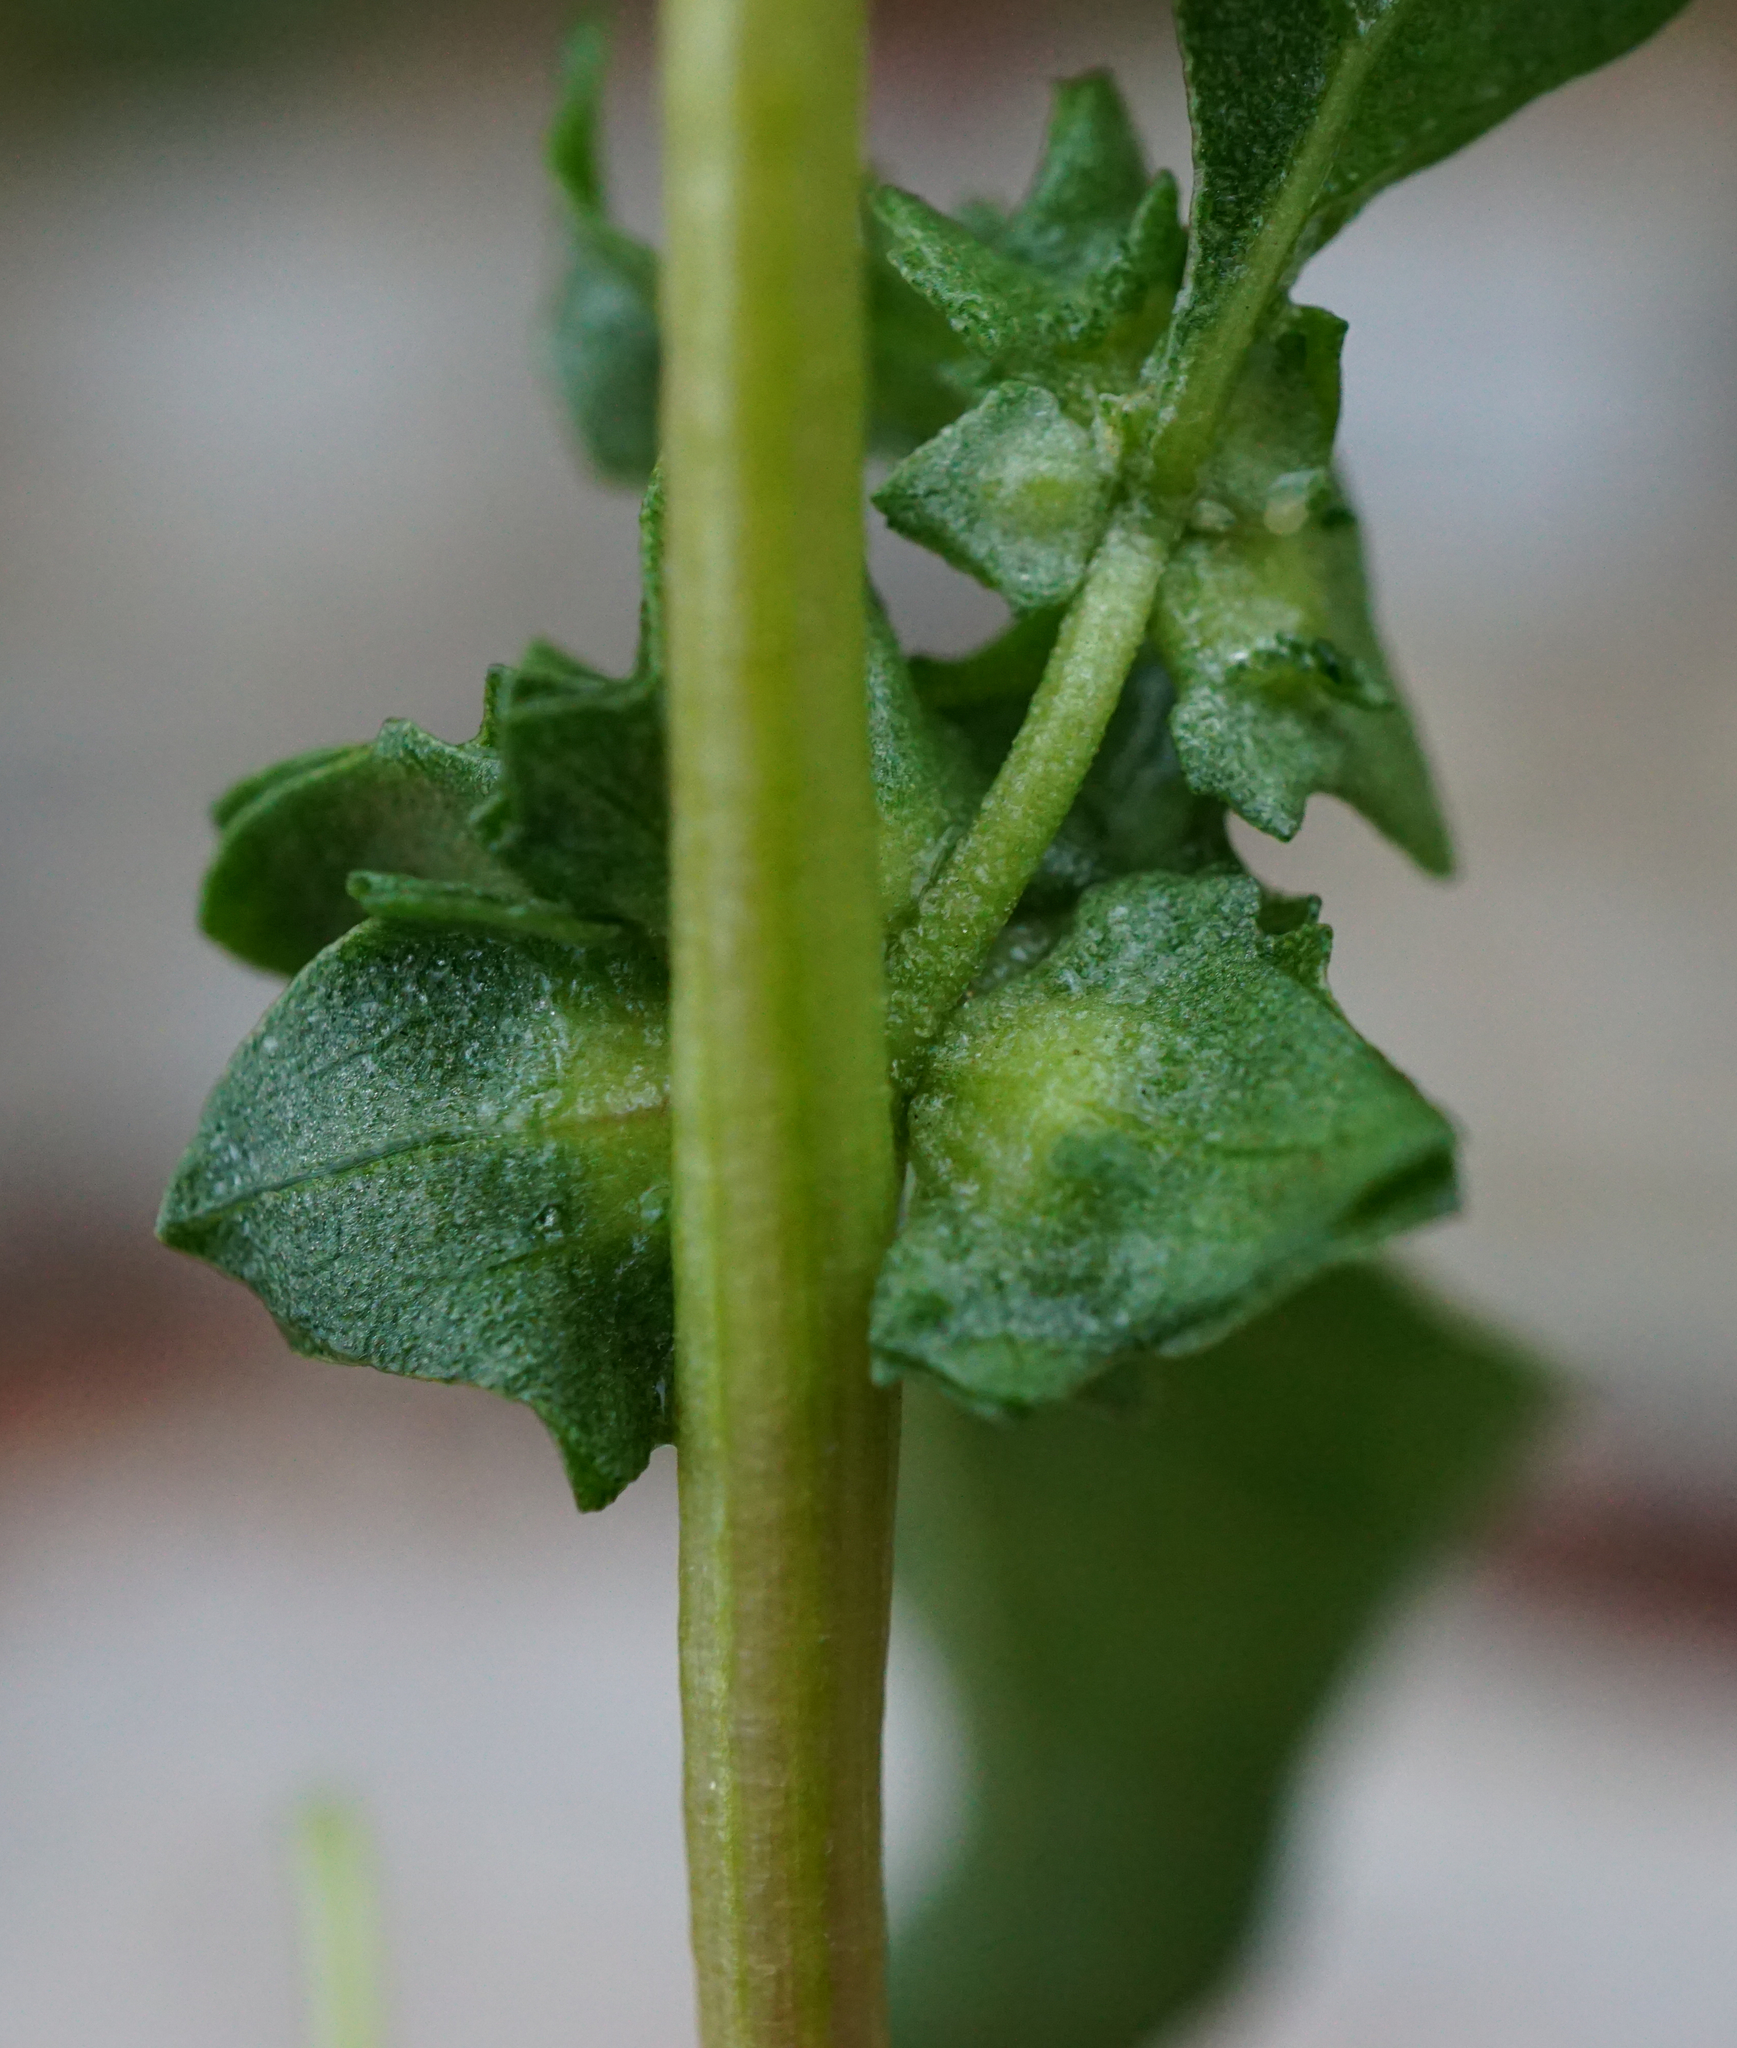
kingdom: Plantae
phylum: Tracheophyta
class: Magnoliopsida
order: Caryophyllales
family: Amaranthaceae
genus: Atriplex
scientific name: Atriplex tatarica
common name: Tatarian orache
